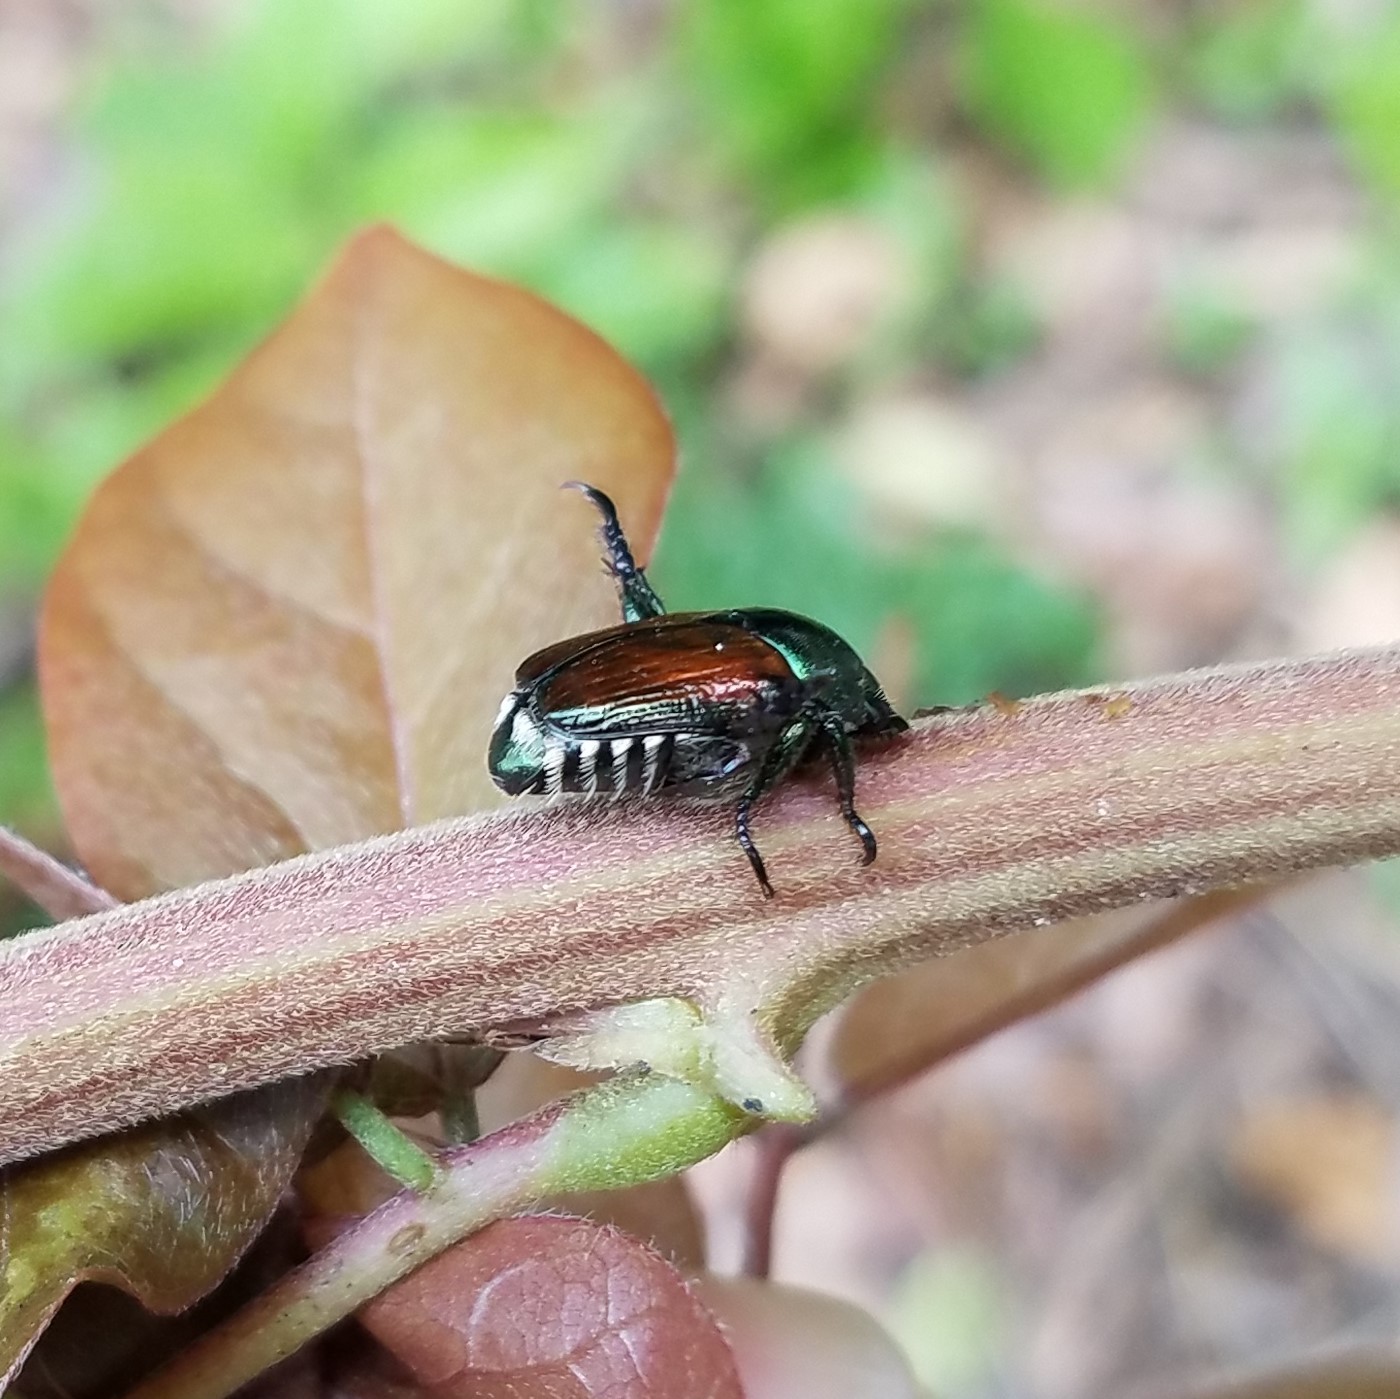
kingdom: Animalia
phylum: Arthropoda
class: Insecta
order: Coleoptera
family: Scarabaeidae
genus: Popillia
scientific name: Popillia japonica
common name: Japanese beetle
